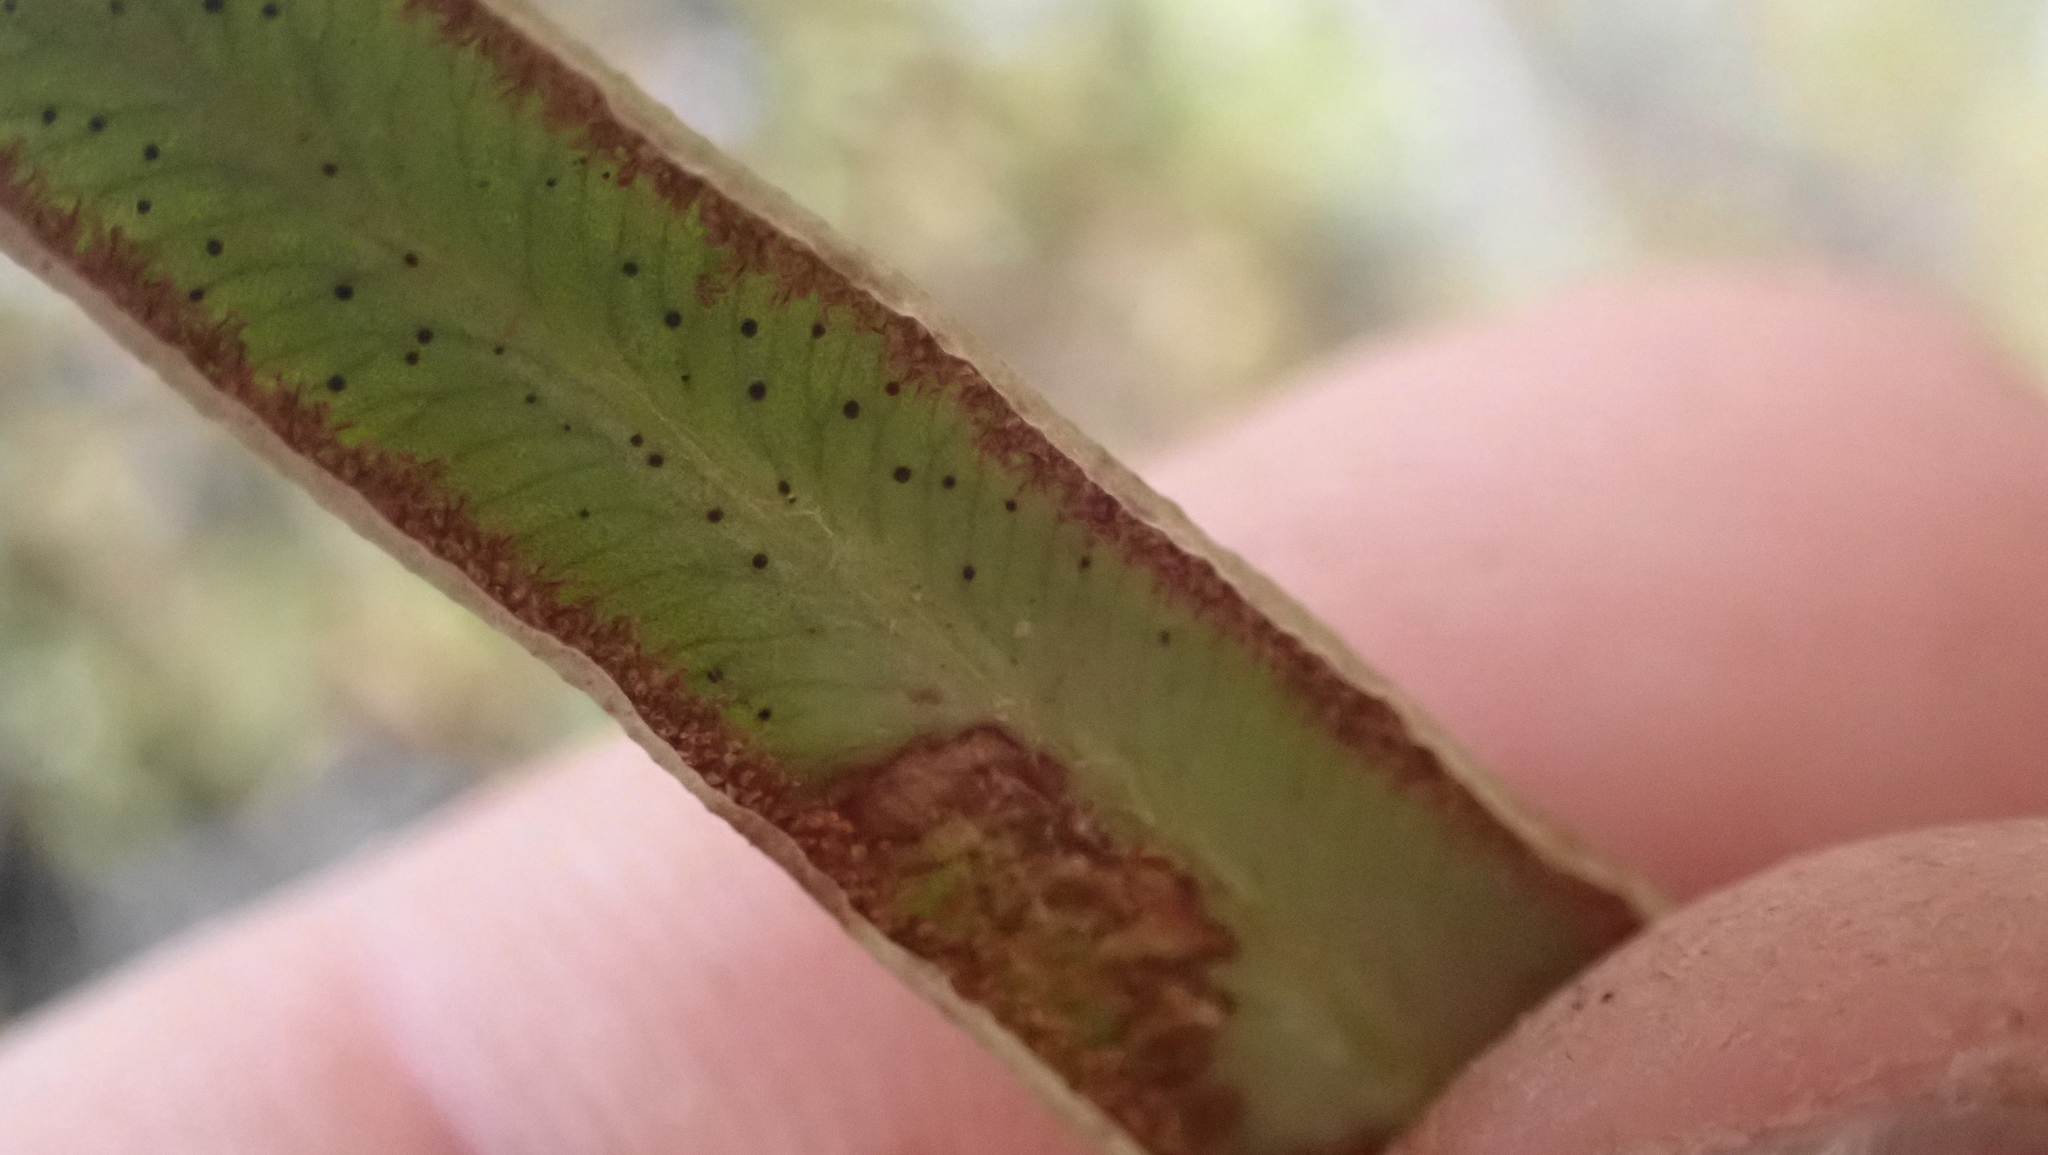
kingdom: Plantae
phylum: Tracheophyta
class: Polypodiopsida
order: Polypodiales
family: Pteridaceae
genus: Pellaea
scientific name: Pellaea atropurpurea
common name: Hairy cliffbrake
